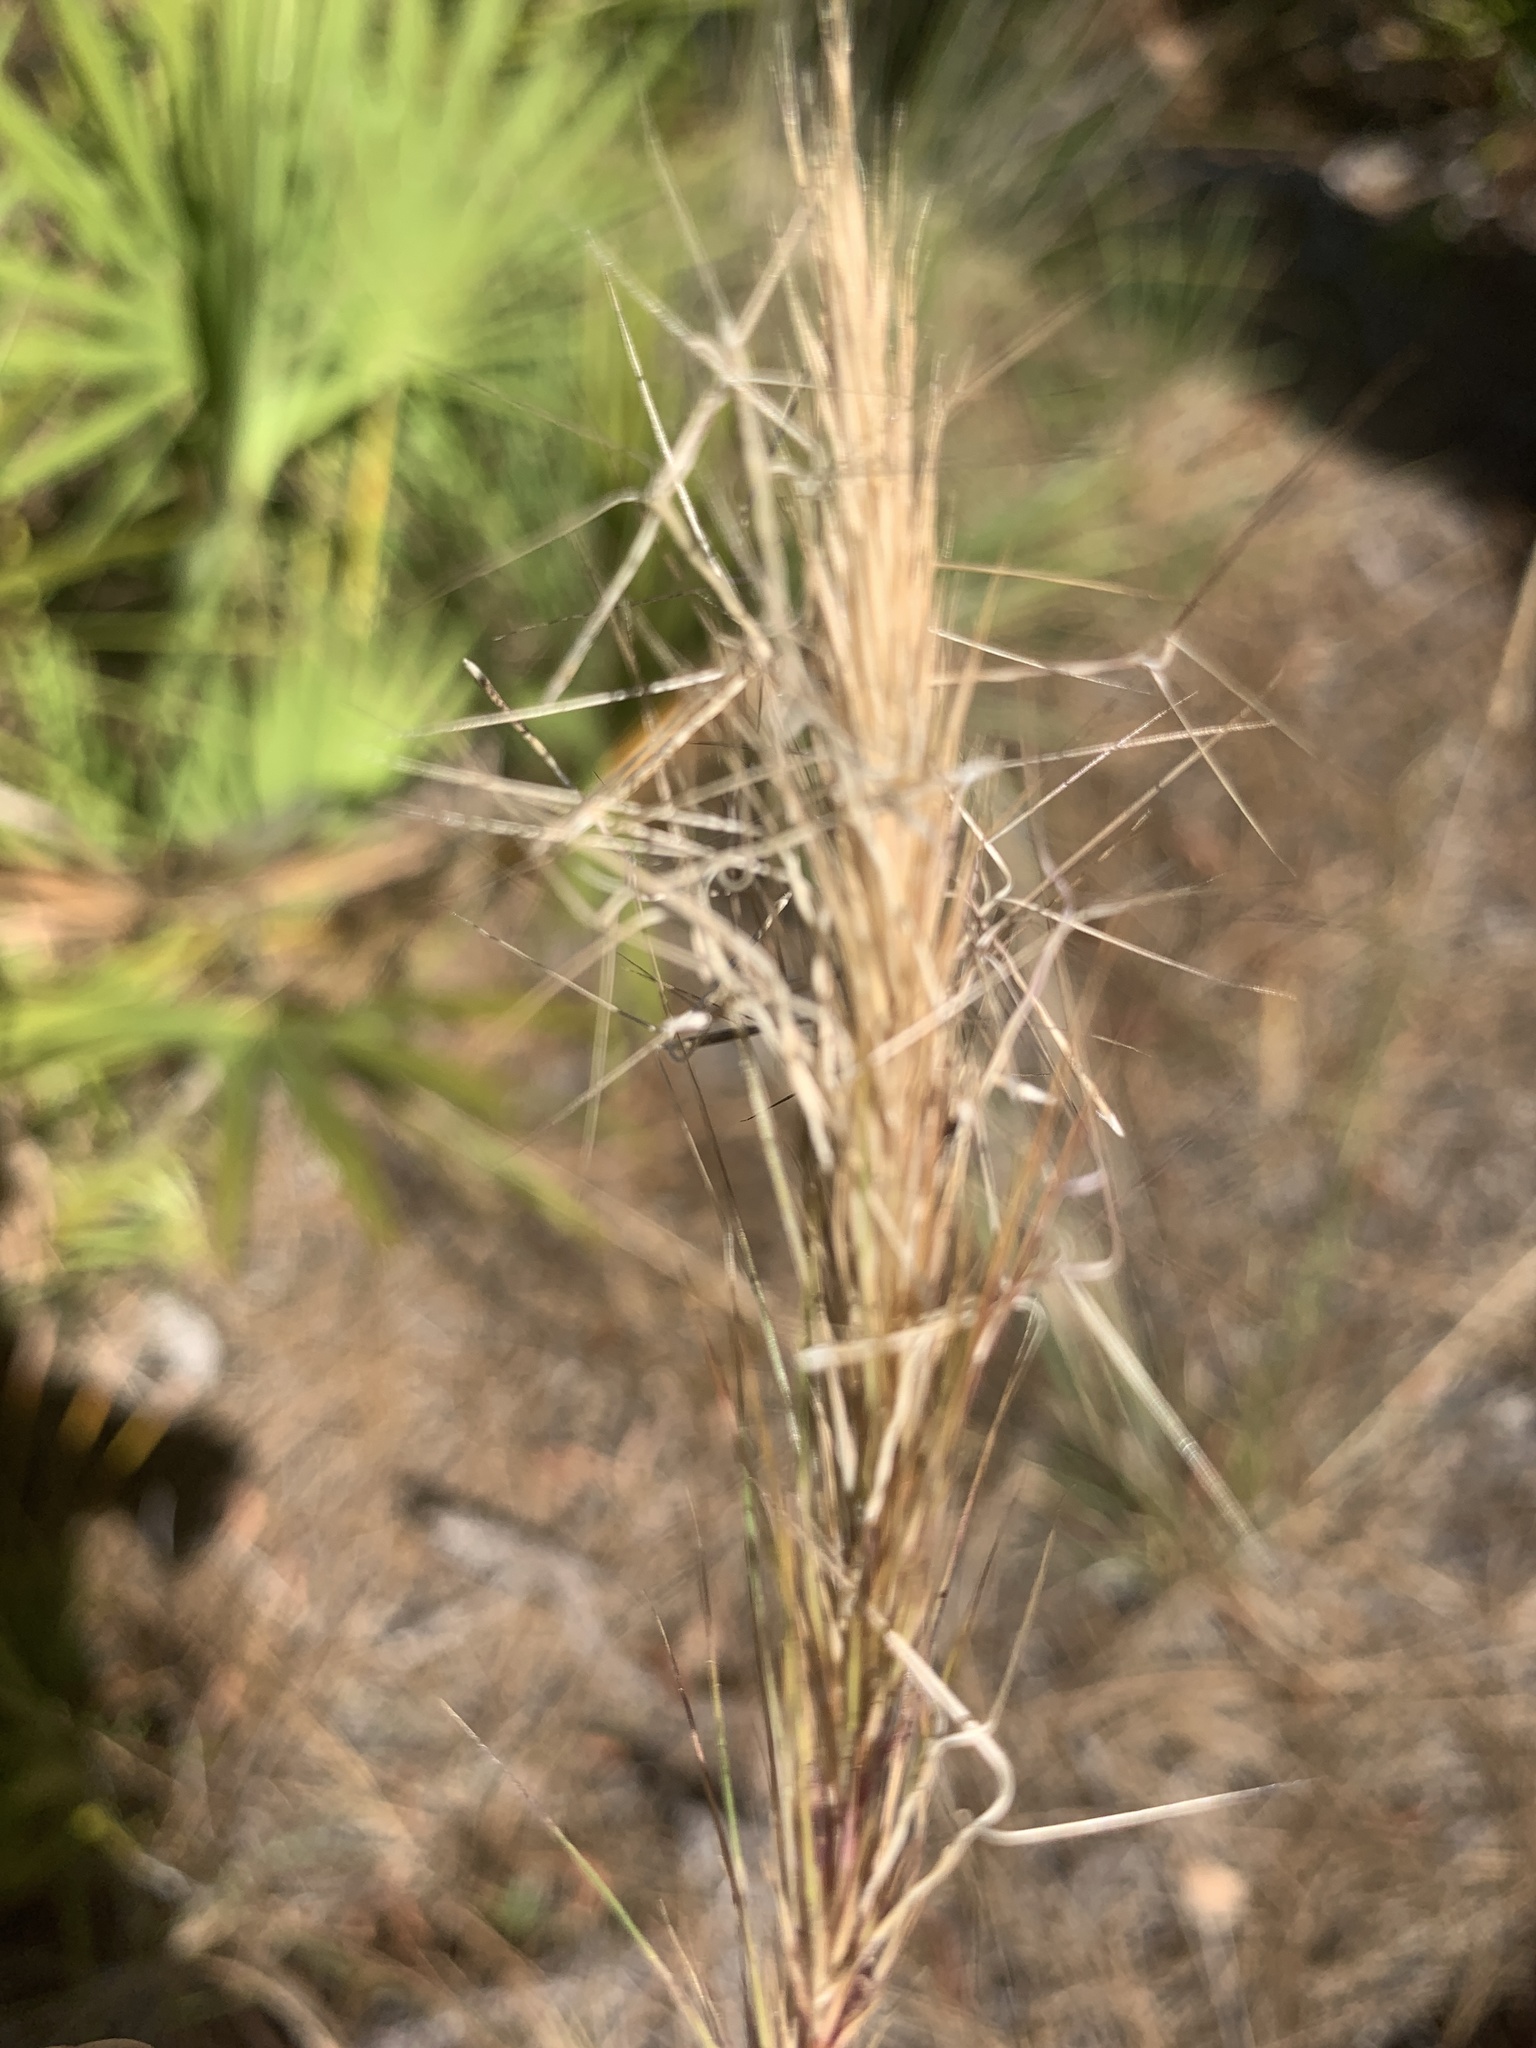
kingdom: Plantae
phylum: Tracheophyta
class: Liliopsida
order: Poales
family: Poaceae
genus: Aristida
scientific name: Aristida spiciformis
